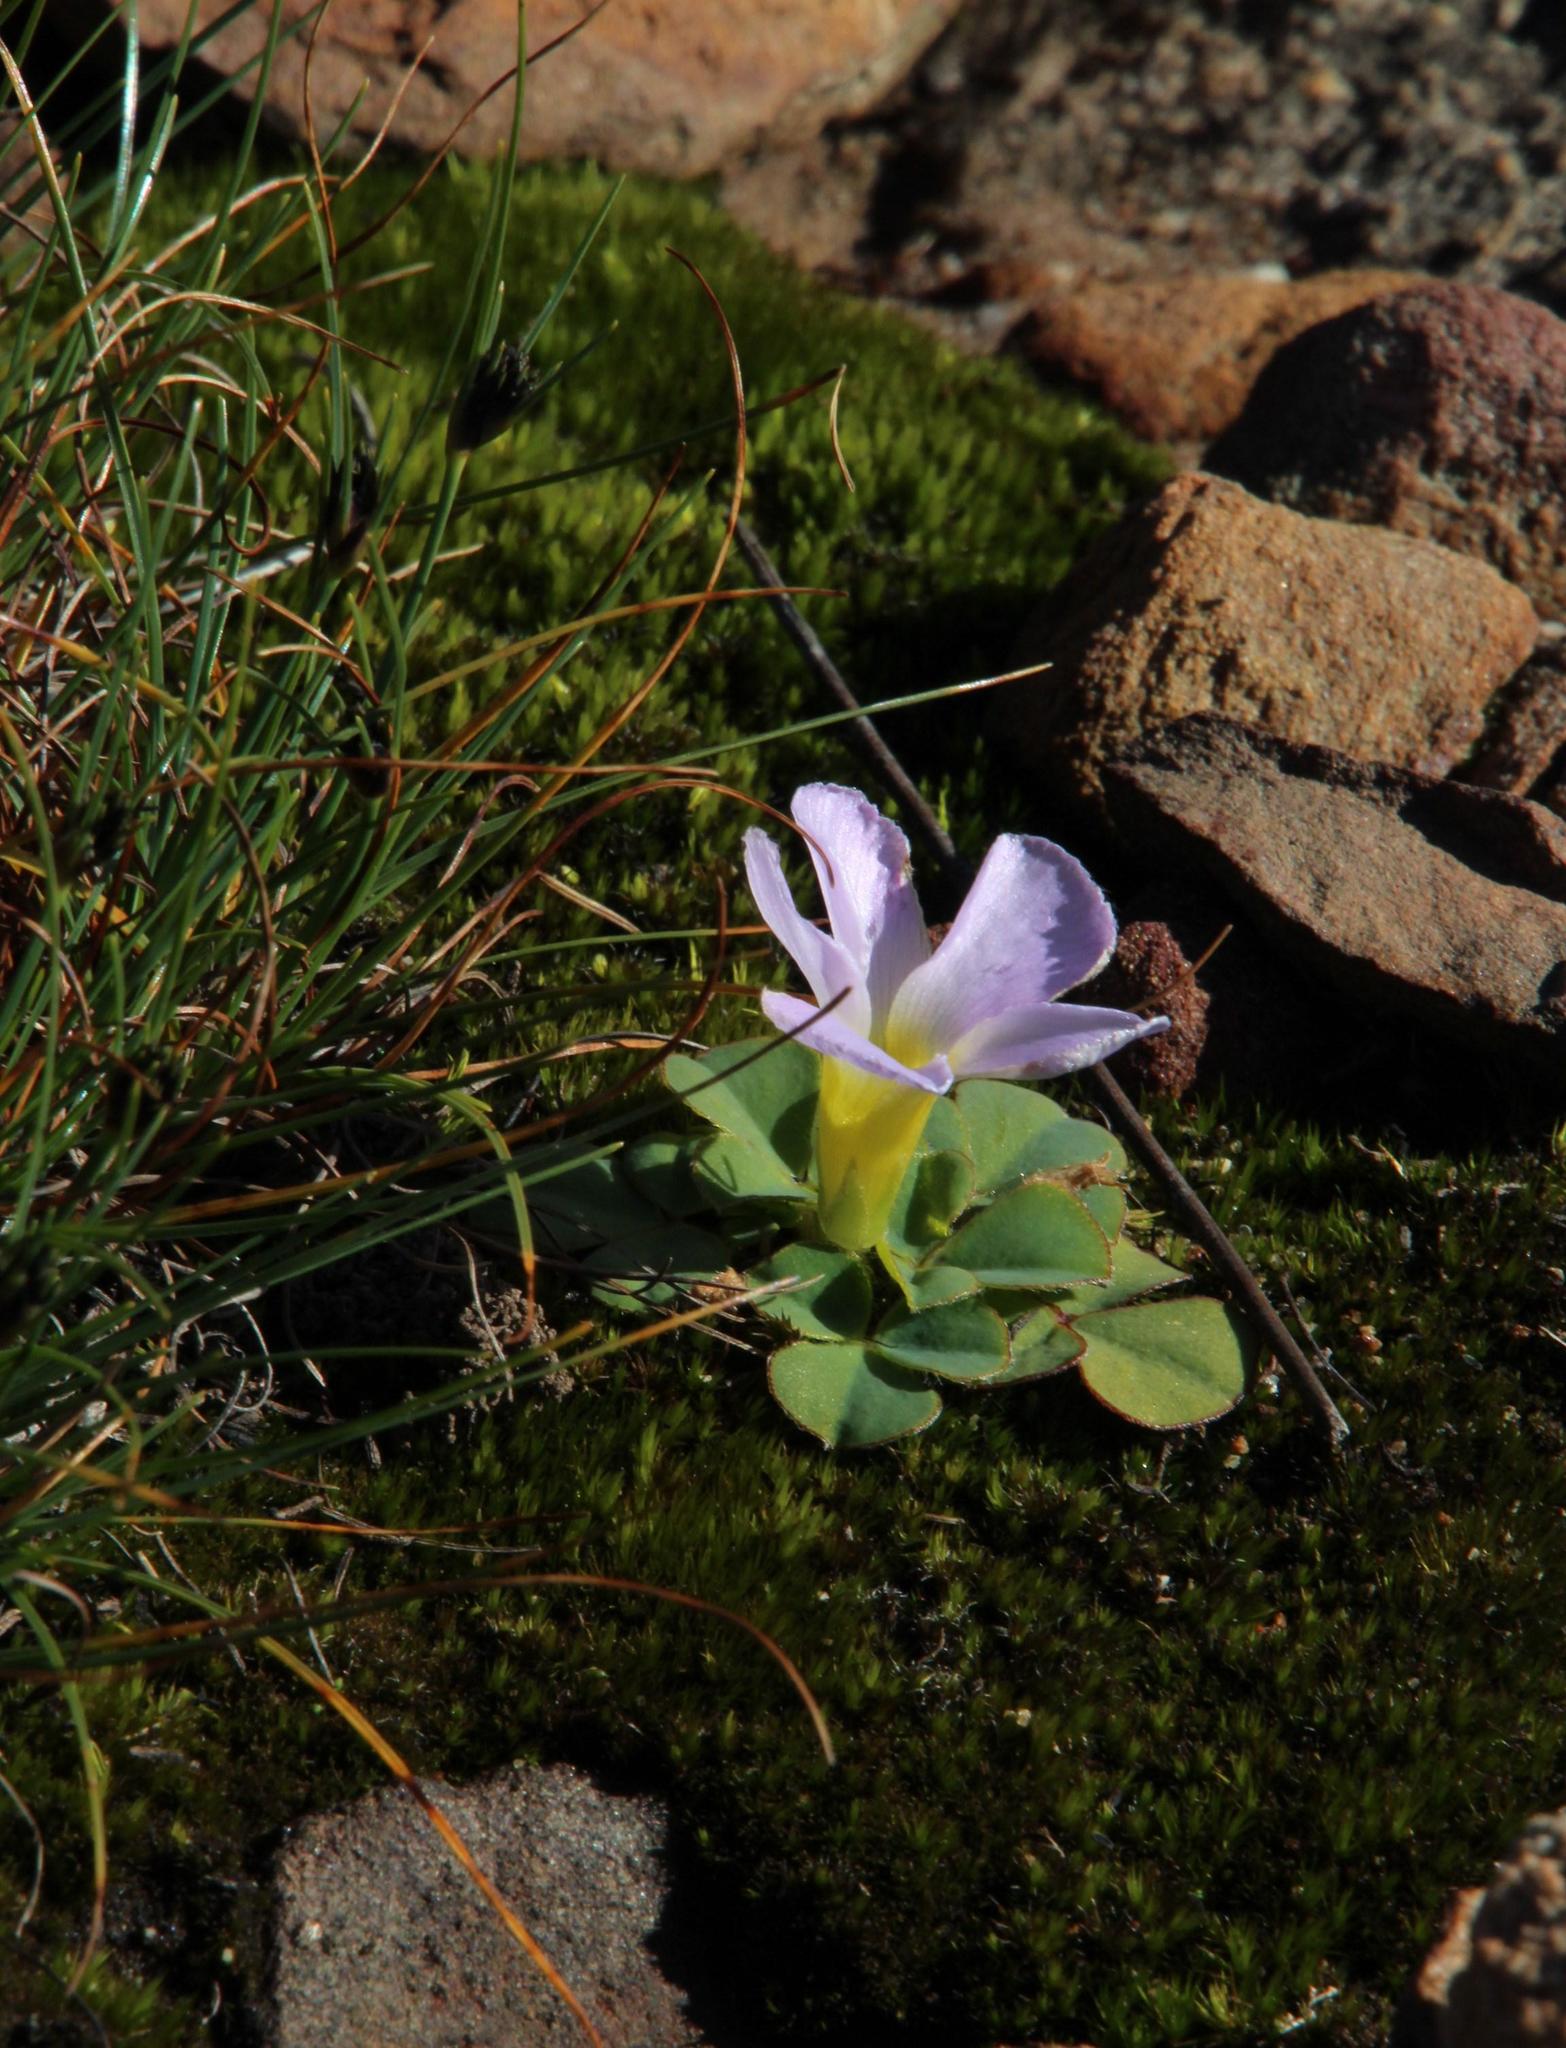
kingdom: Plantae
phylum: Tracheophyta
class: Magnoliopsida
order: Oxalidales
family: Oxalidaceae
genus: Oxalis
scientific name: Oxalis purpurea
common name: Purple woodsorrel
